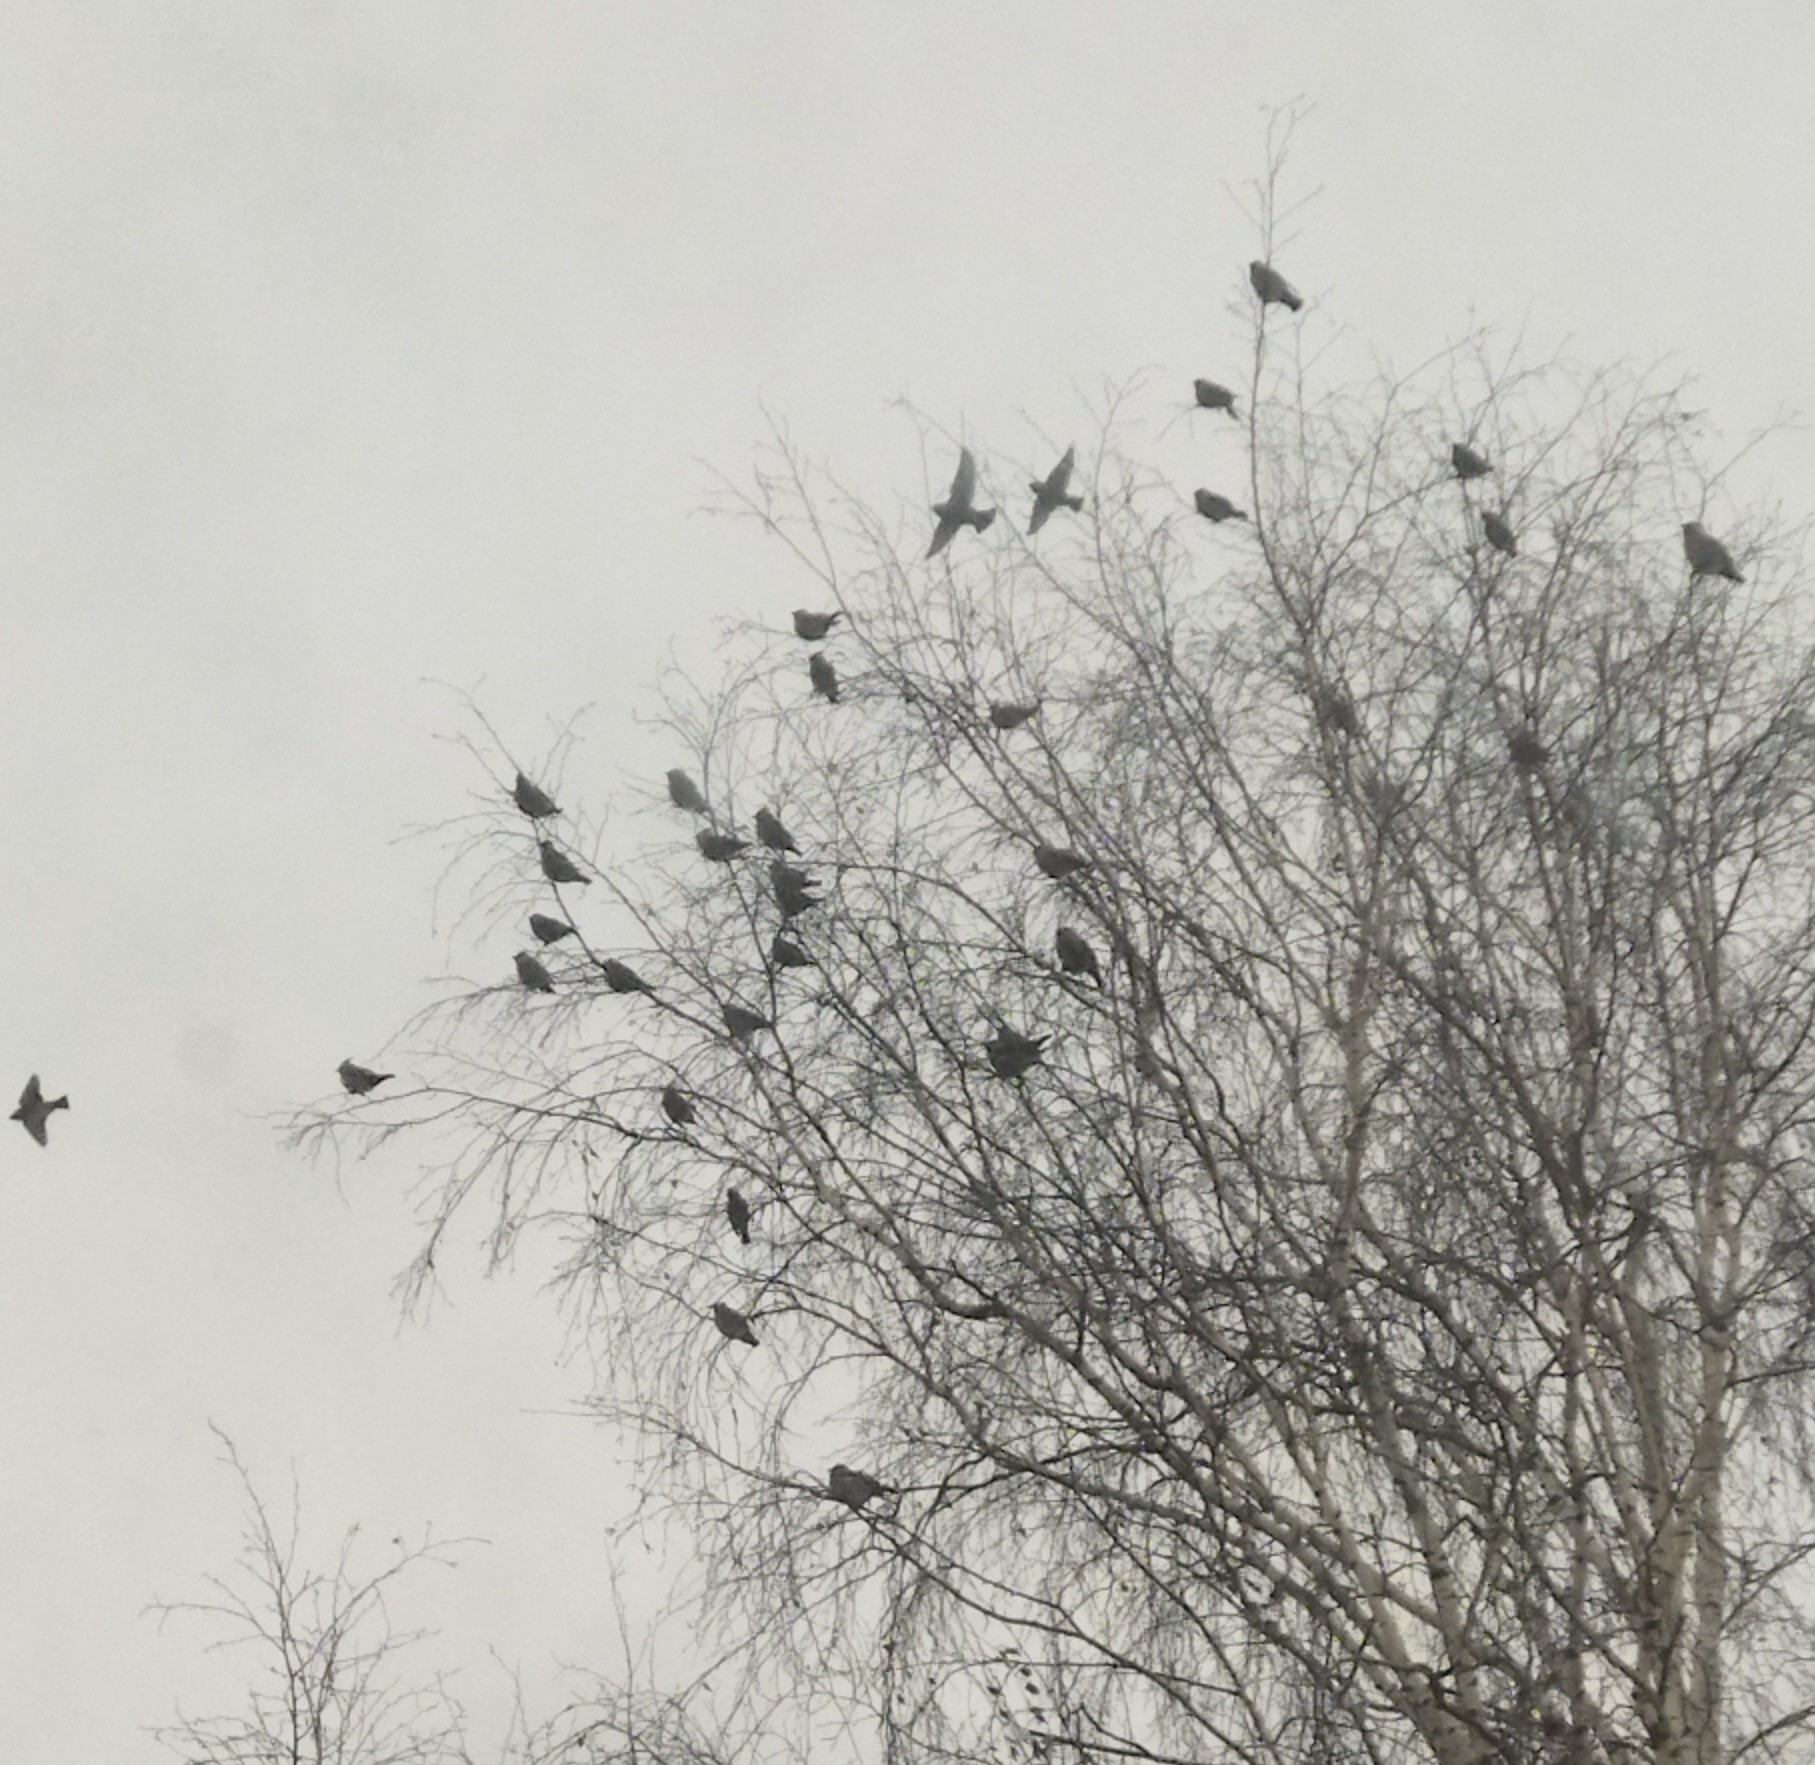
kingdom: Animalia
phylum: Chordata
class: Aves
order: Passeriformes
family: Bombycillidae
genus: Bombycilla
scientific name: Bombycilla garrulus
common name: Bohemian waxwing
